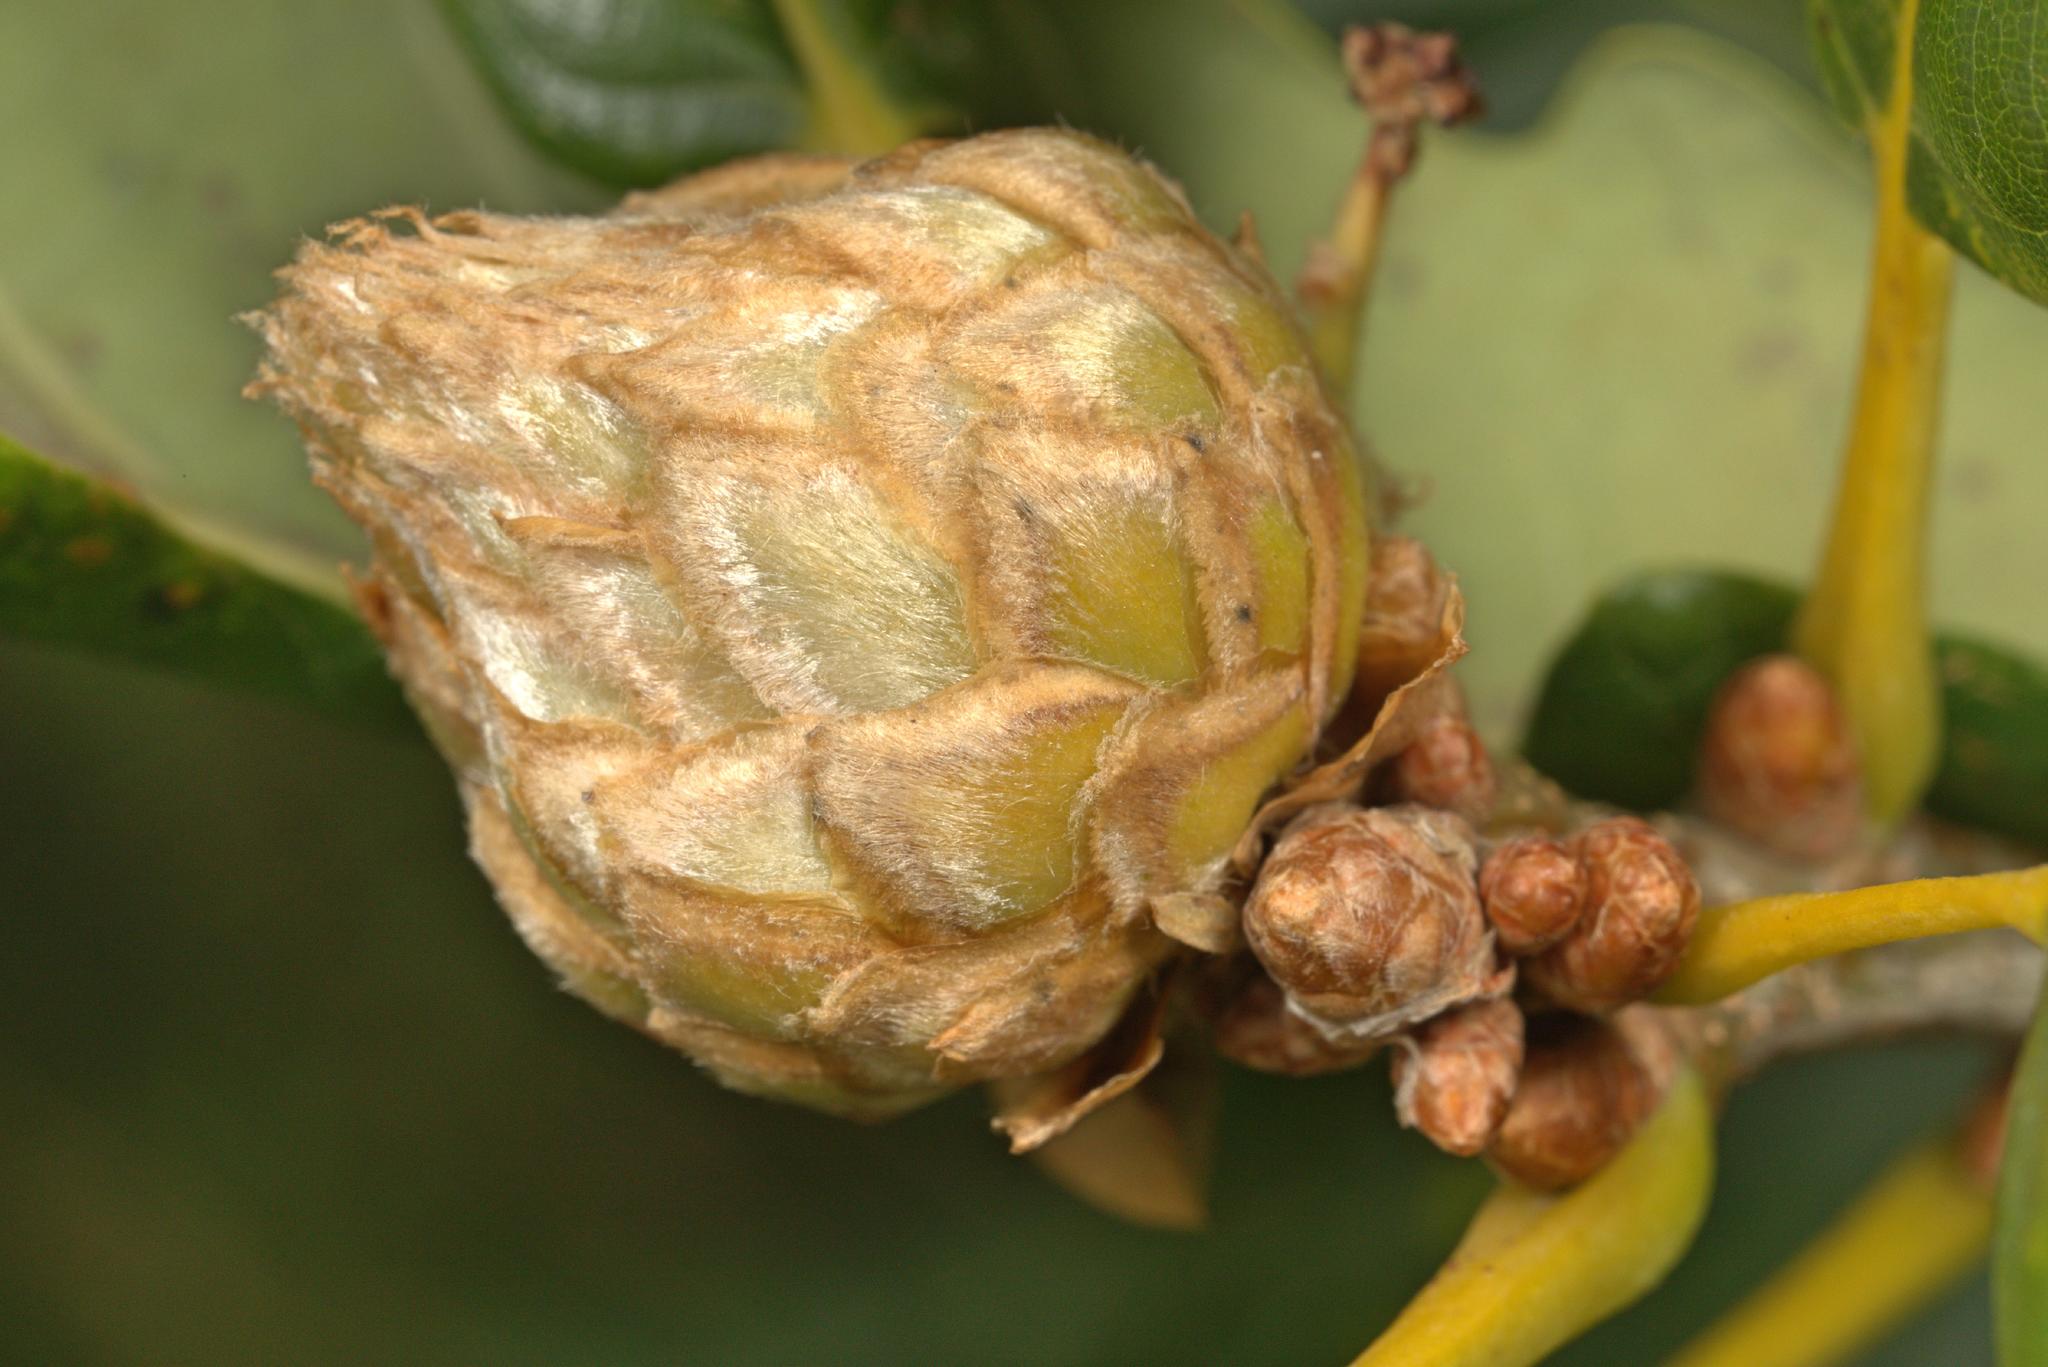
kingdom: Animalia
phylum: Arthropoda
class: Insecta
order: Hymenoptera
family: Cynipidae
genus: Andricus
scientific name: Andricus foecundatrix
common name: Artichoke gall
